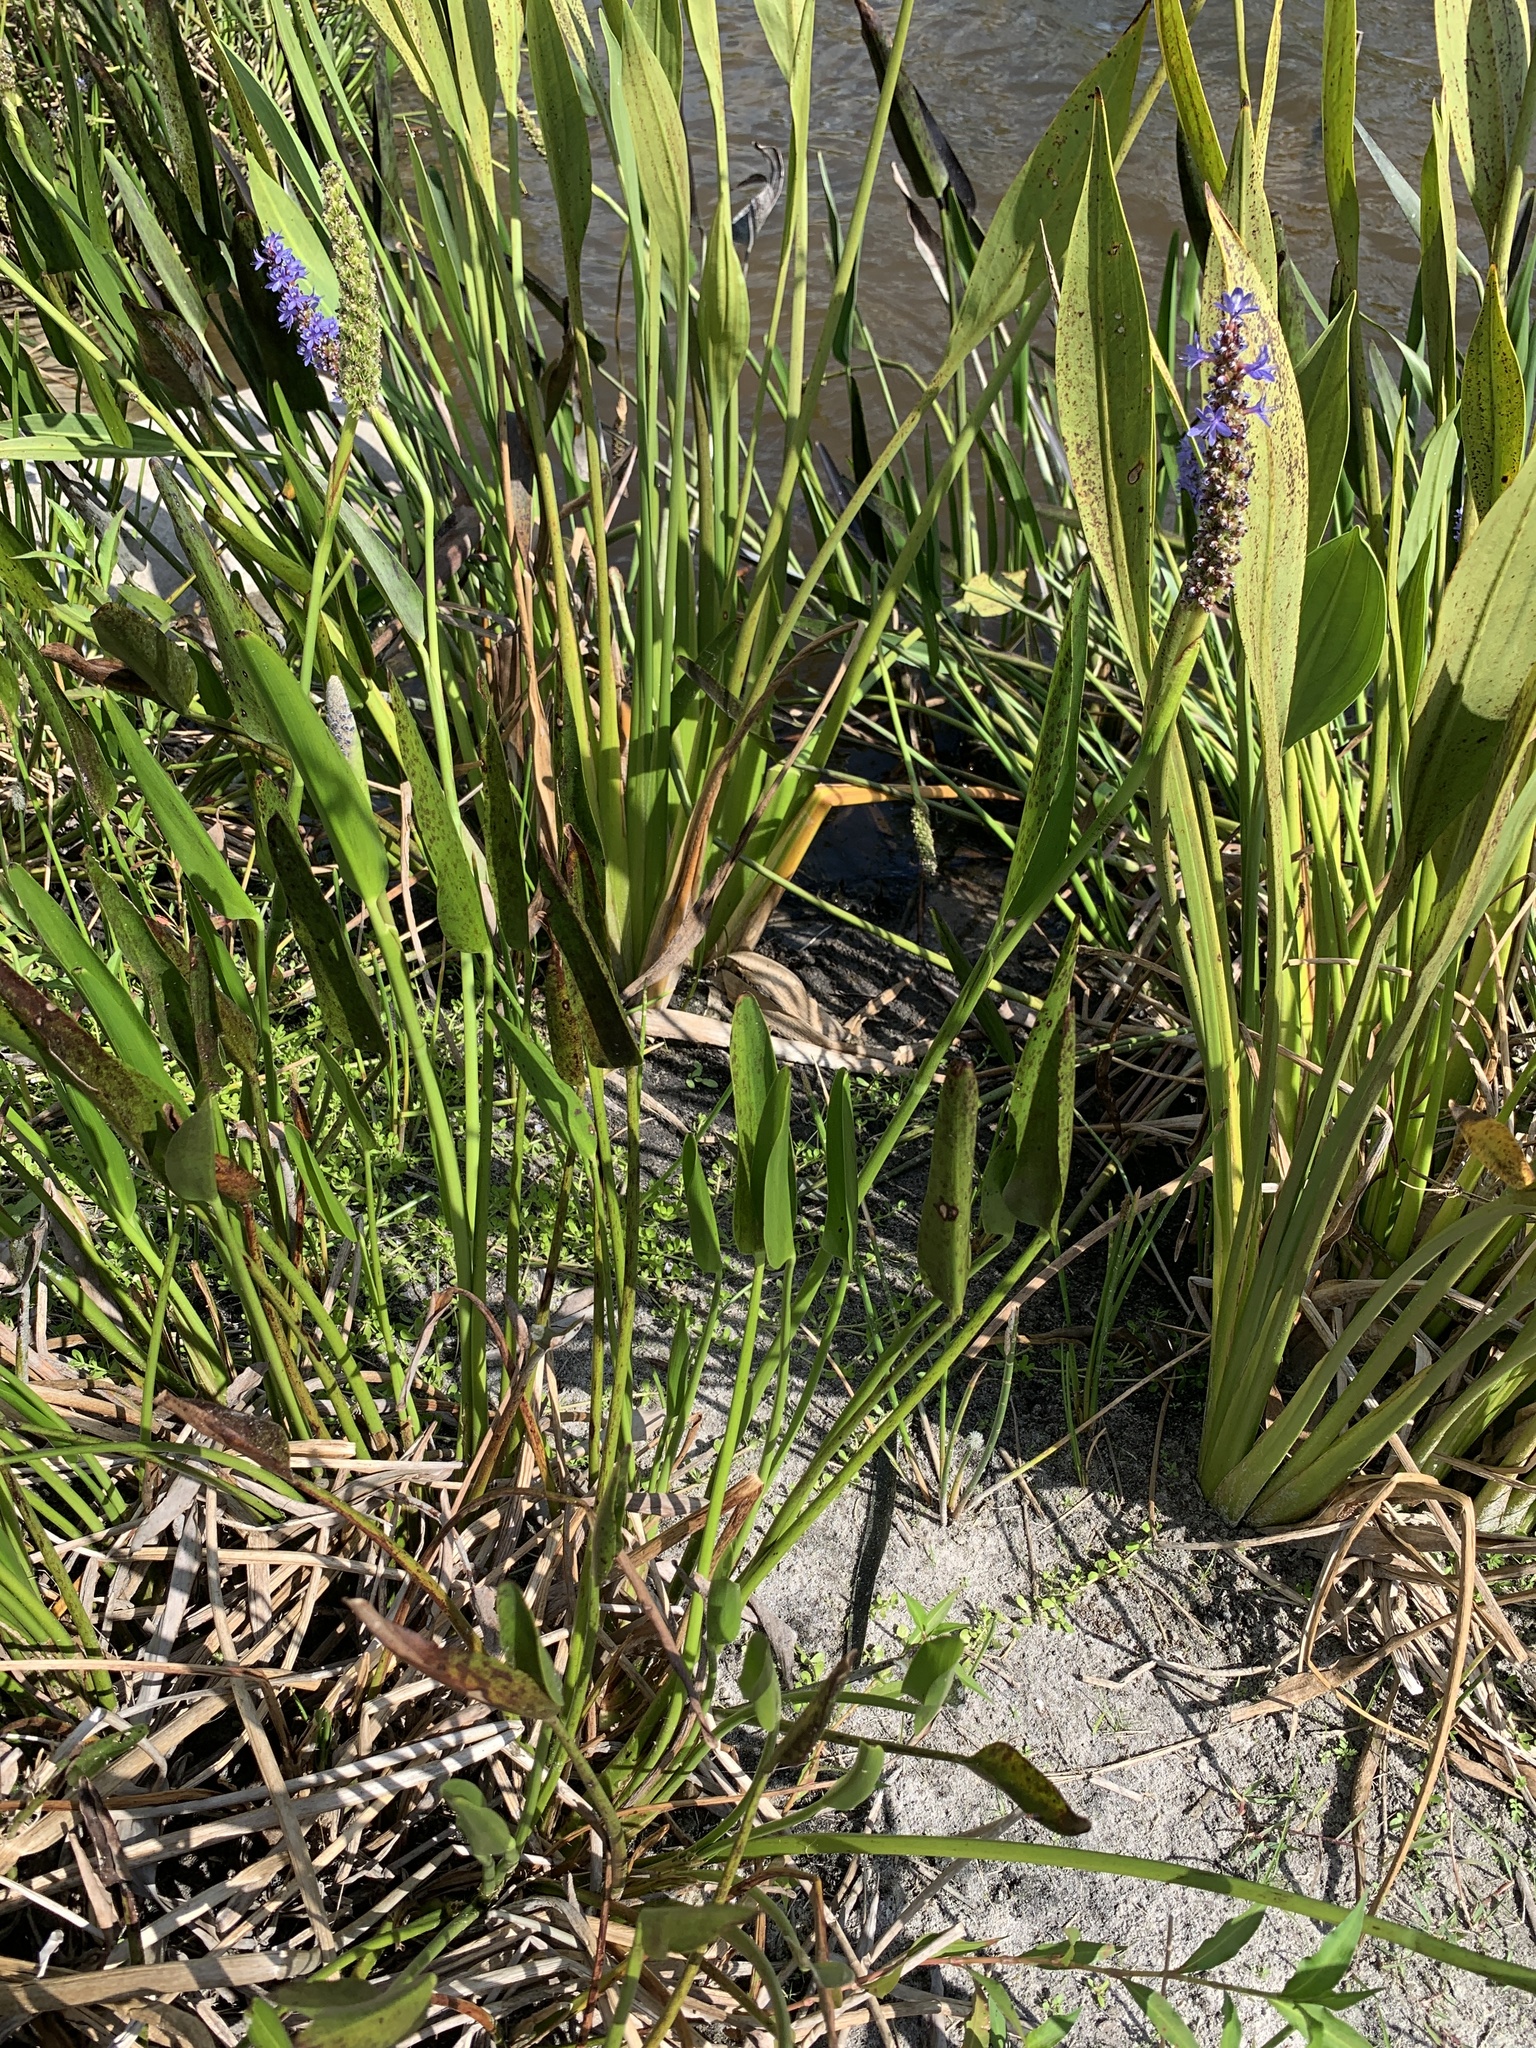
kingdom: Plantae
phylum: Tracheophyta
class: Liliopsida
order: Commelinales
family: Pontederiaceae
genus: Pontederia
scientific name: Pontederia cordata
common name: Pickerelweed
